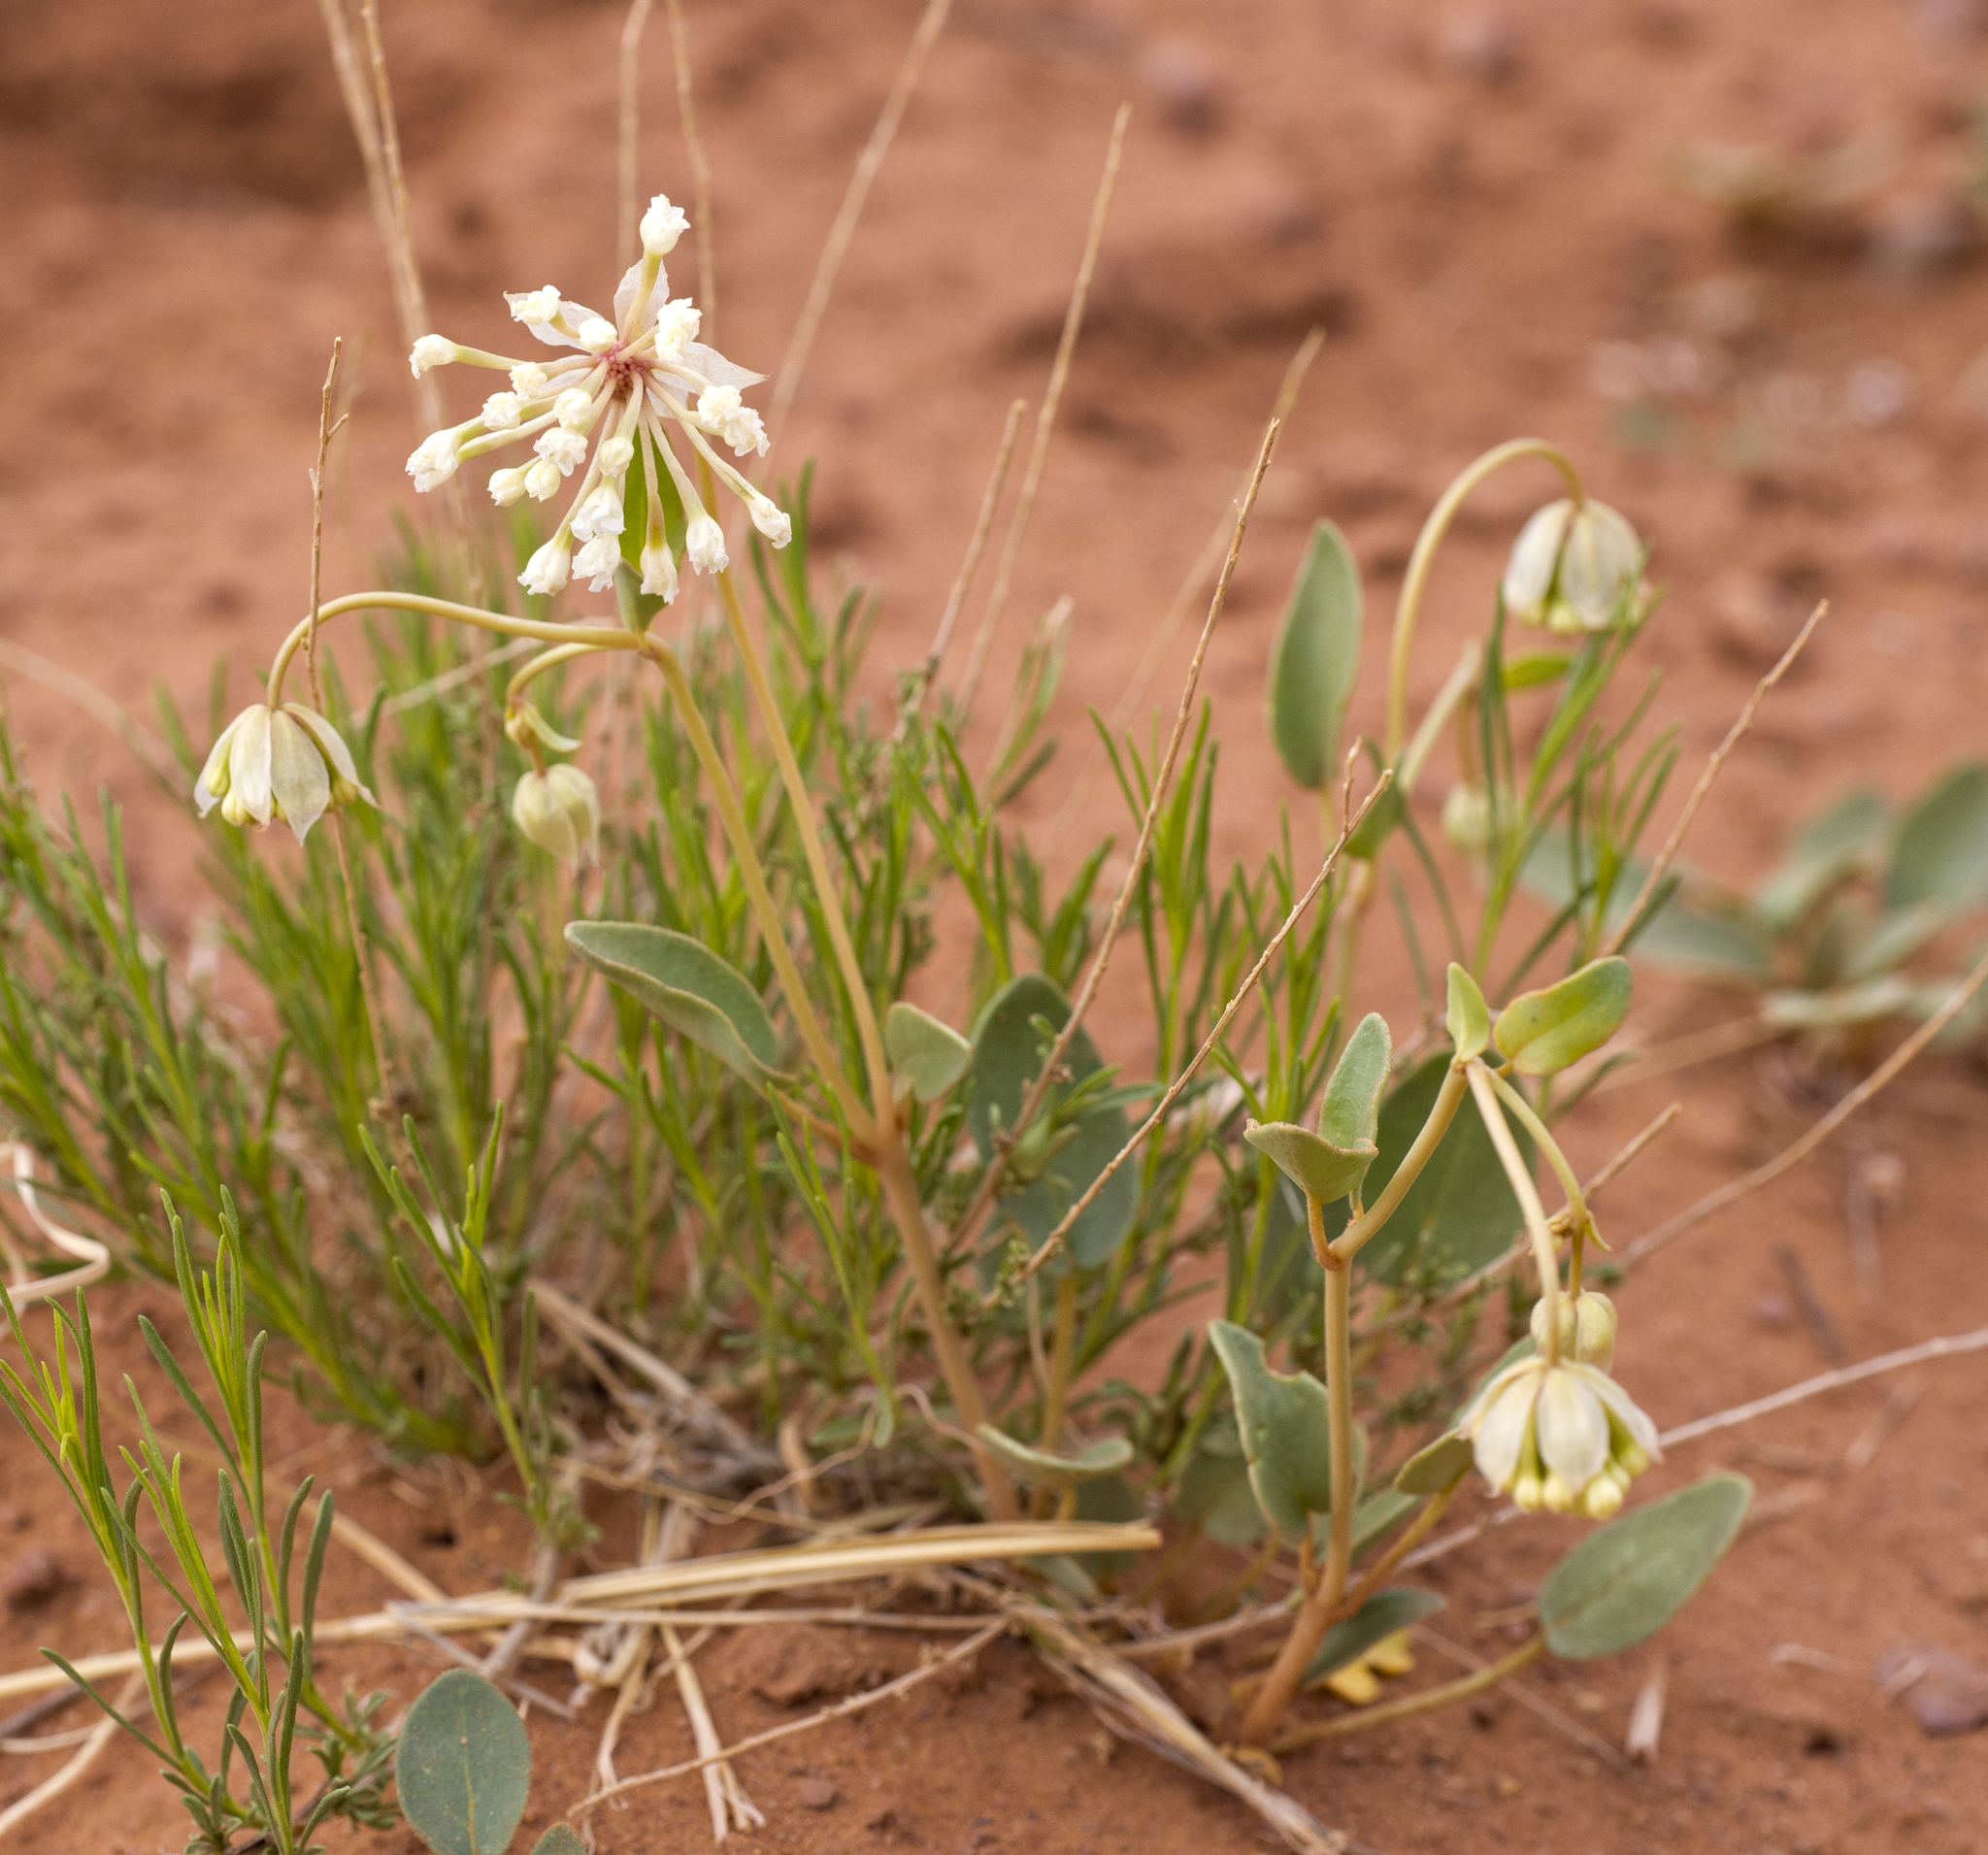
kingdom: Plantae
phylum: Tracheophyta
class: Magnoliopsida
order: Caryophyllales
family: Nyctaginaceae
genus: Abronia
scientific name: Abronia elliptica
